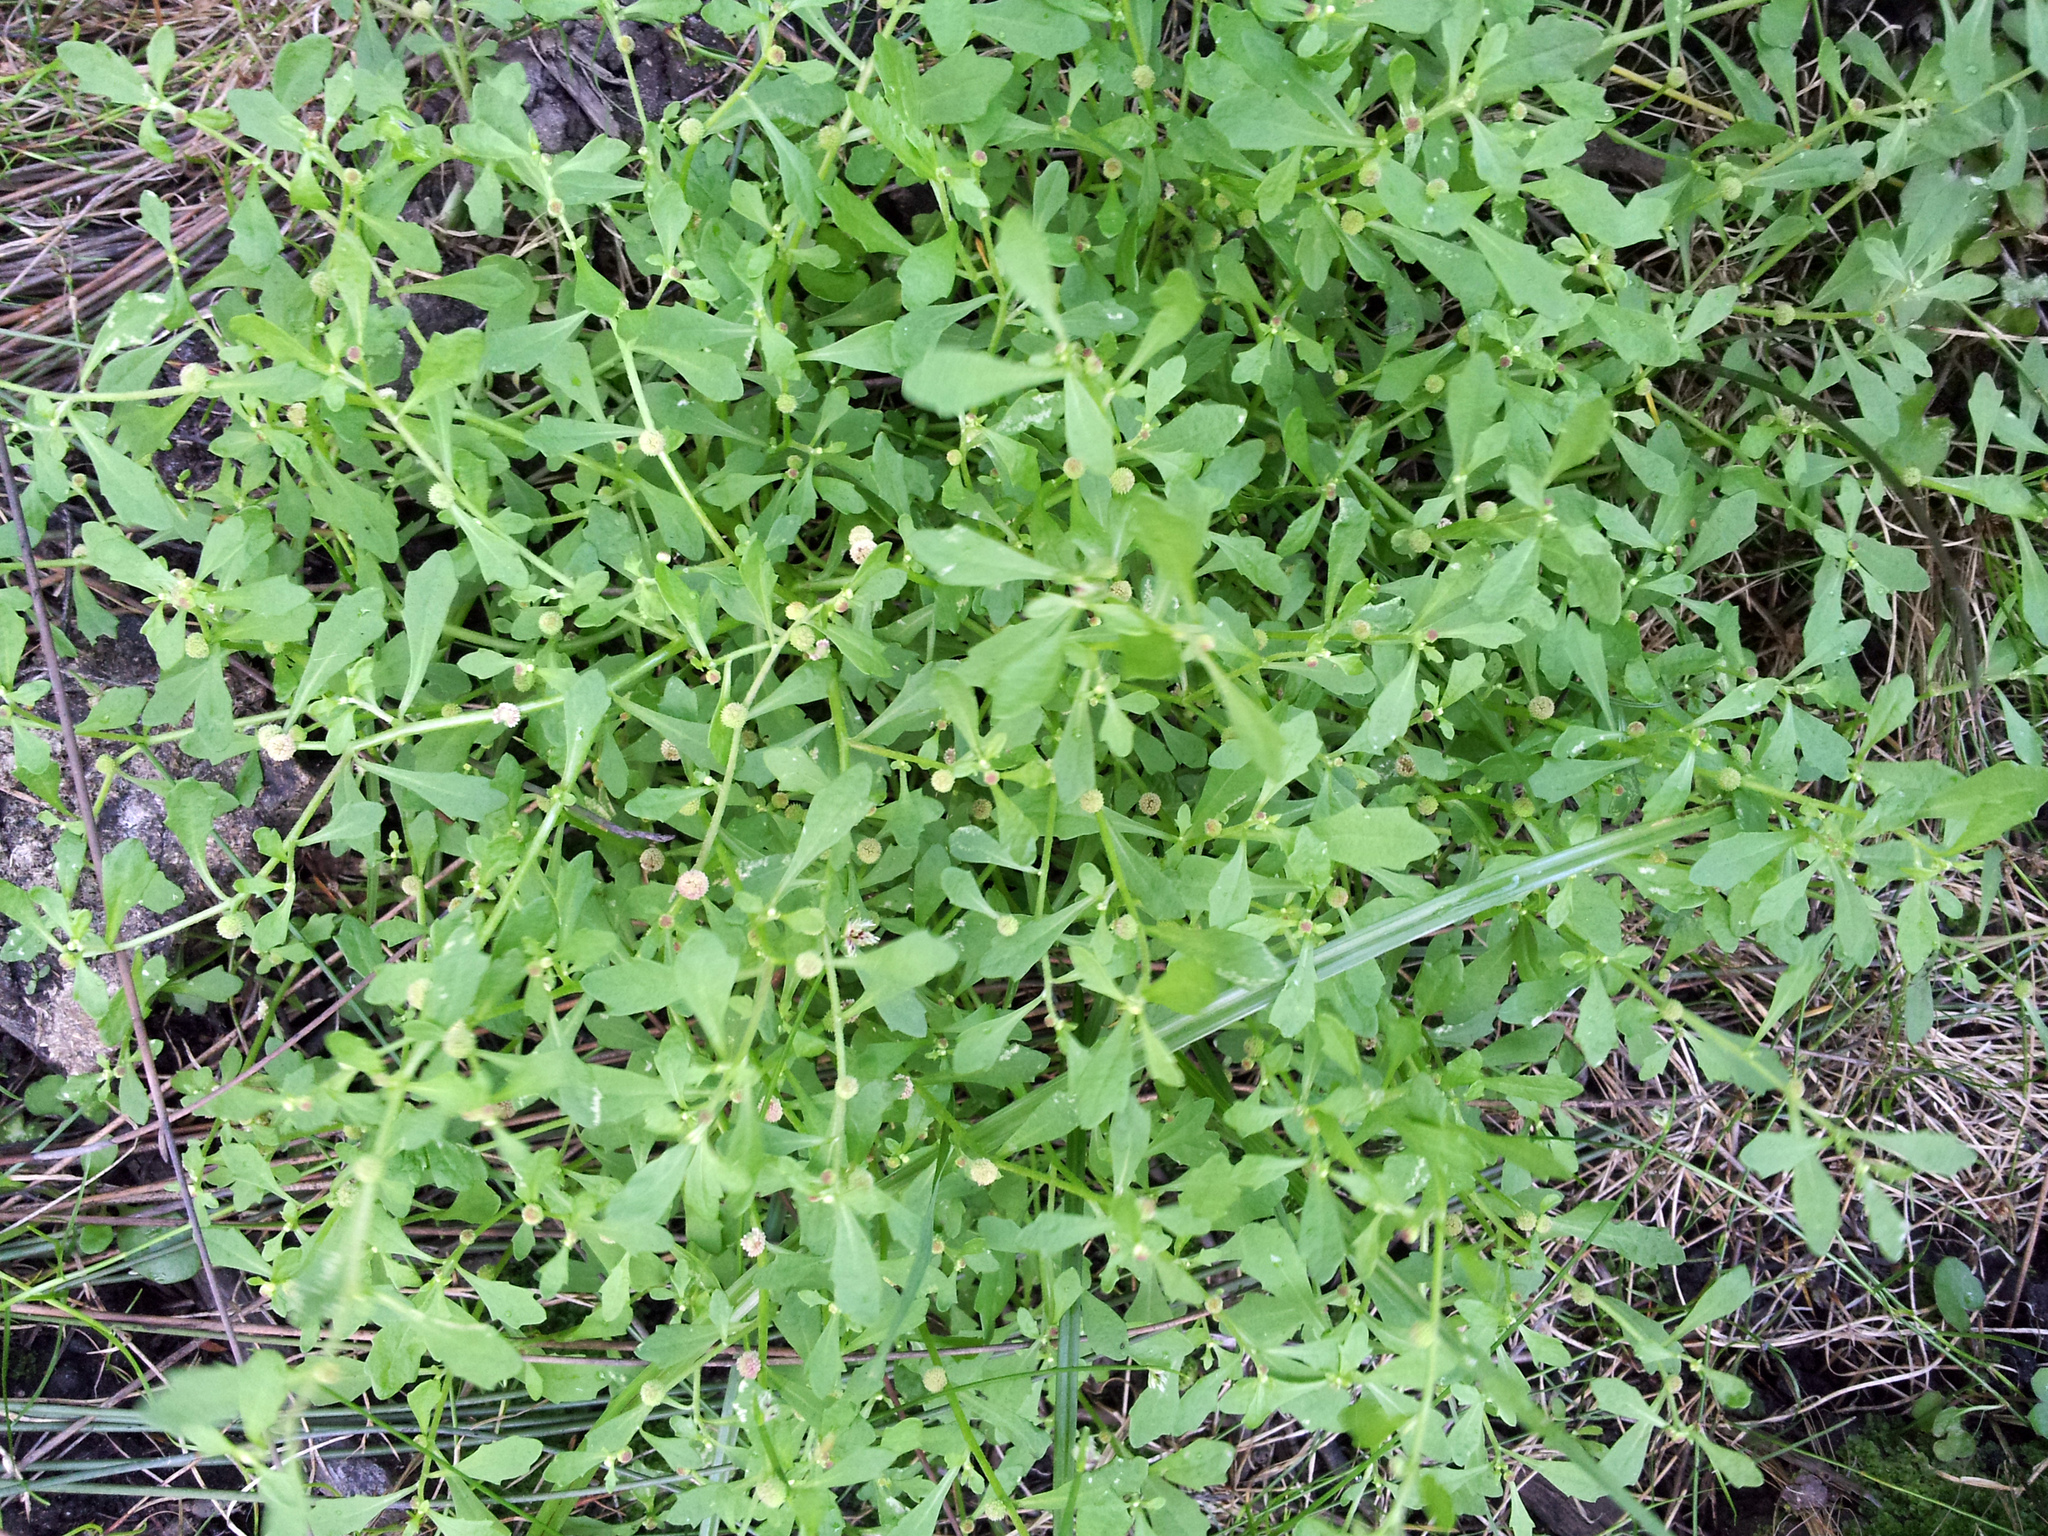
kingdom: Plantae
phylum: Tracheophyta
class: Magnoliopsida
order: Asterales
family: Asteraceae
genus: Centipeda
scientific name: Centipeda minima
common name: Spreading sneezeweed
